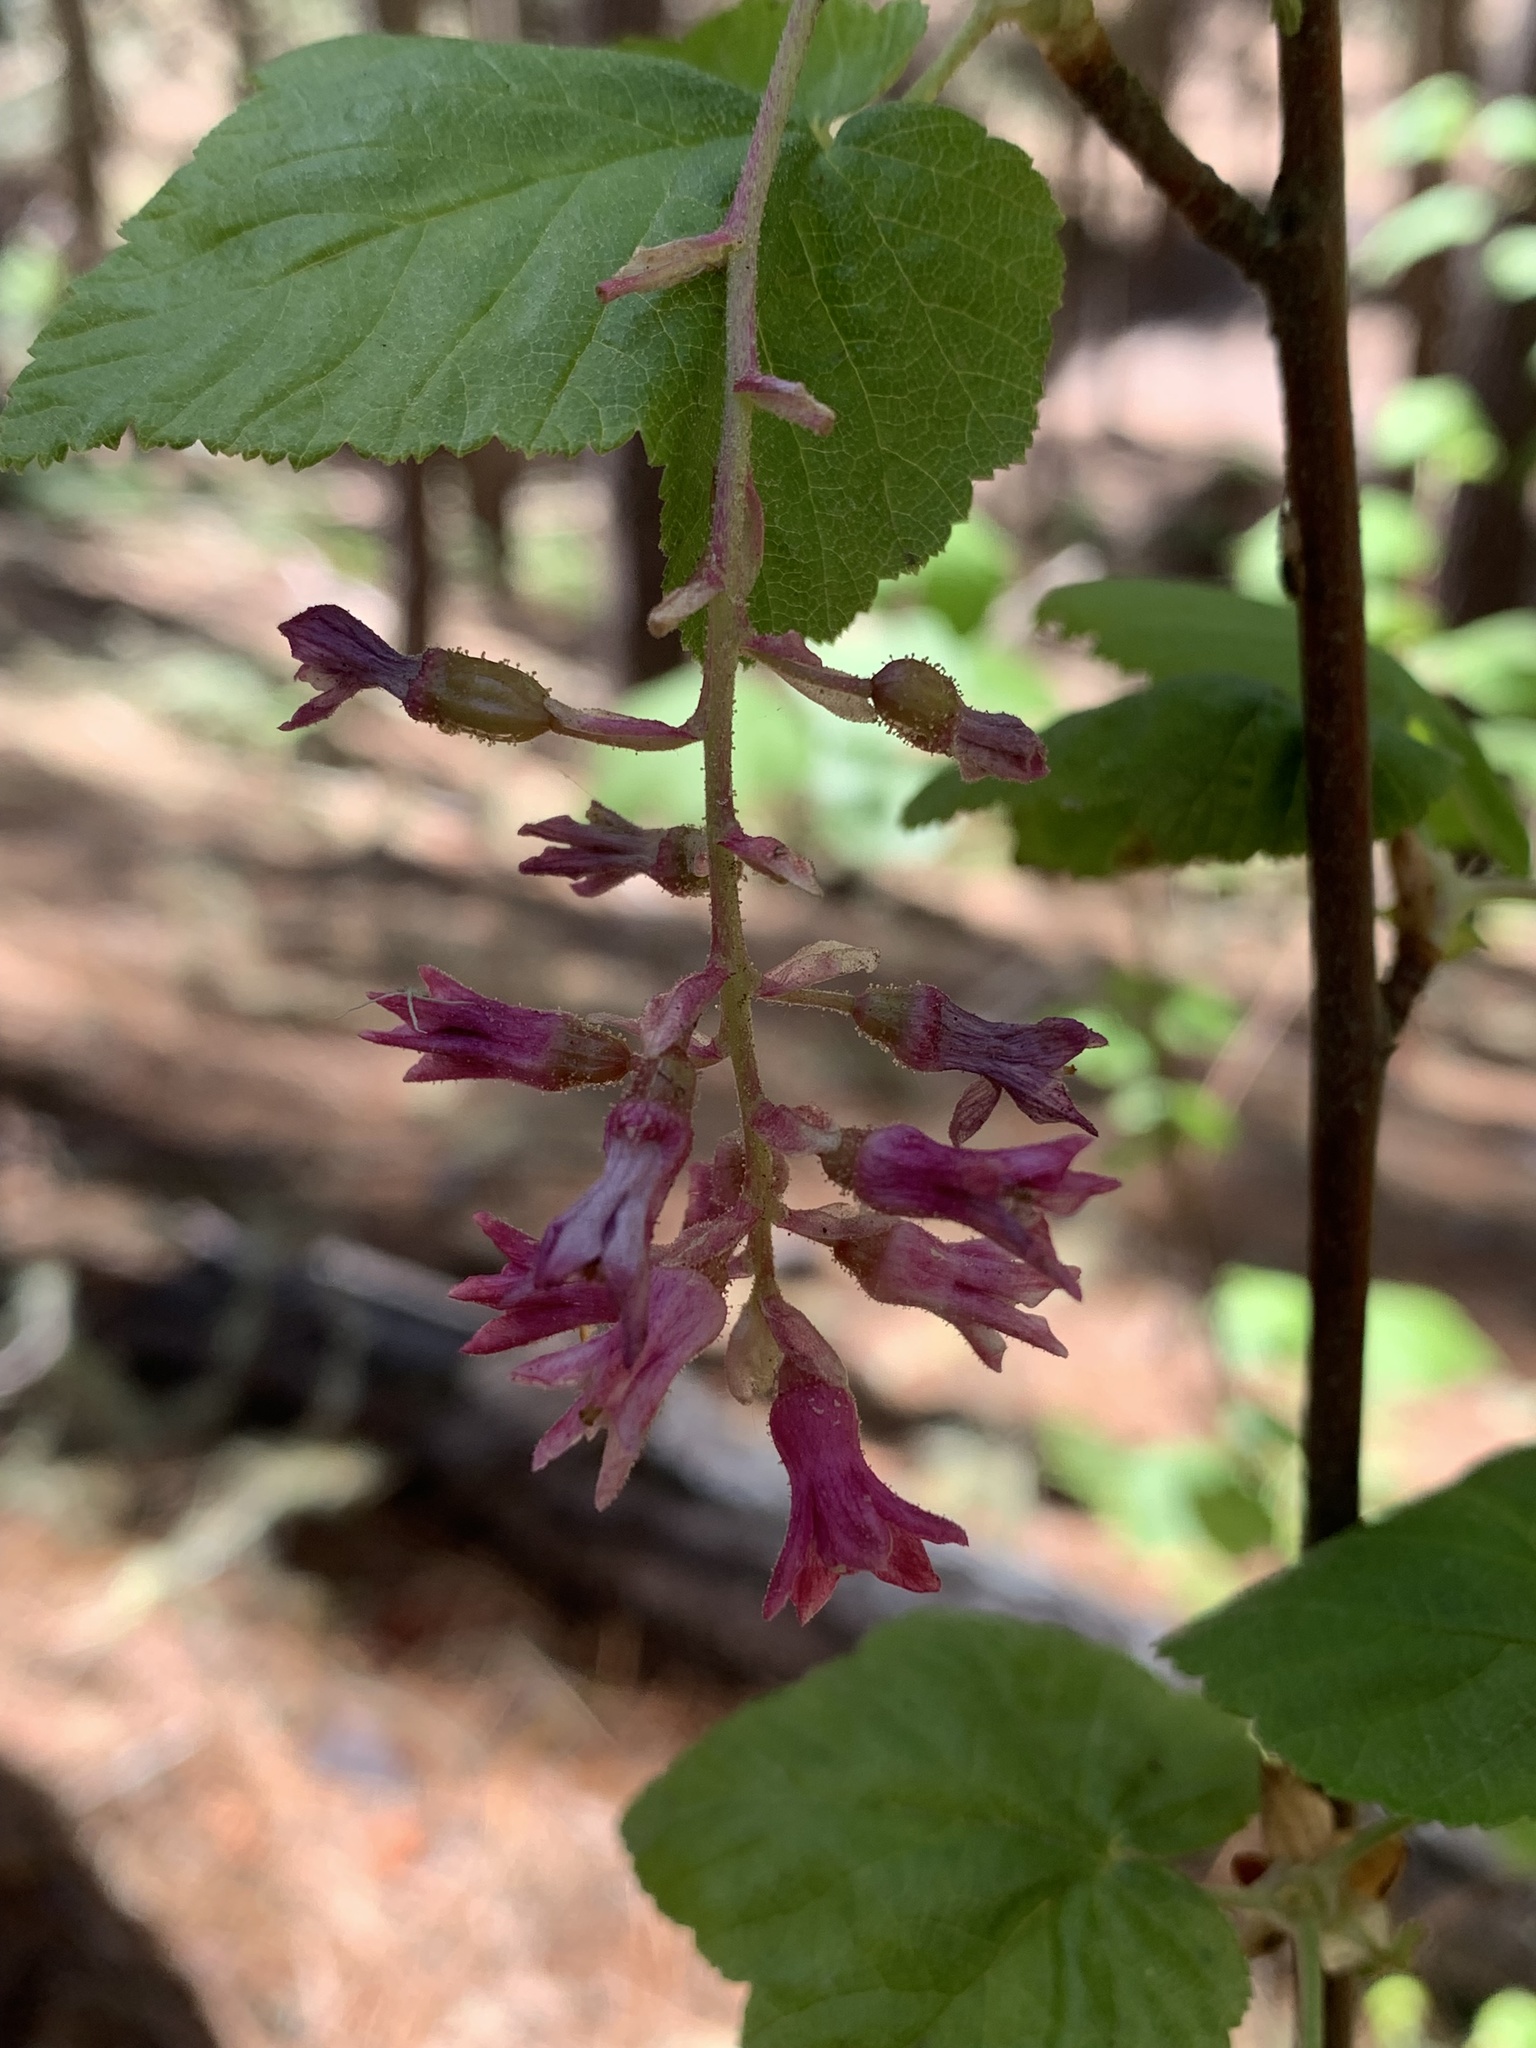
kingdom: Plantae
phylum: Tracheophyta
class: Magnoliopsida
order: Saxifragales
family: Grossulariaceae
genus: Ribes
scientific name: Ribes sanguineum
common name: Flowering currant
